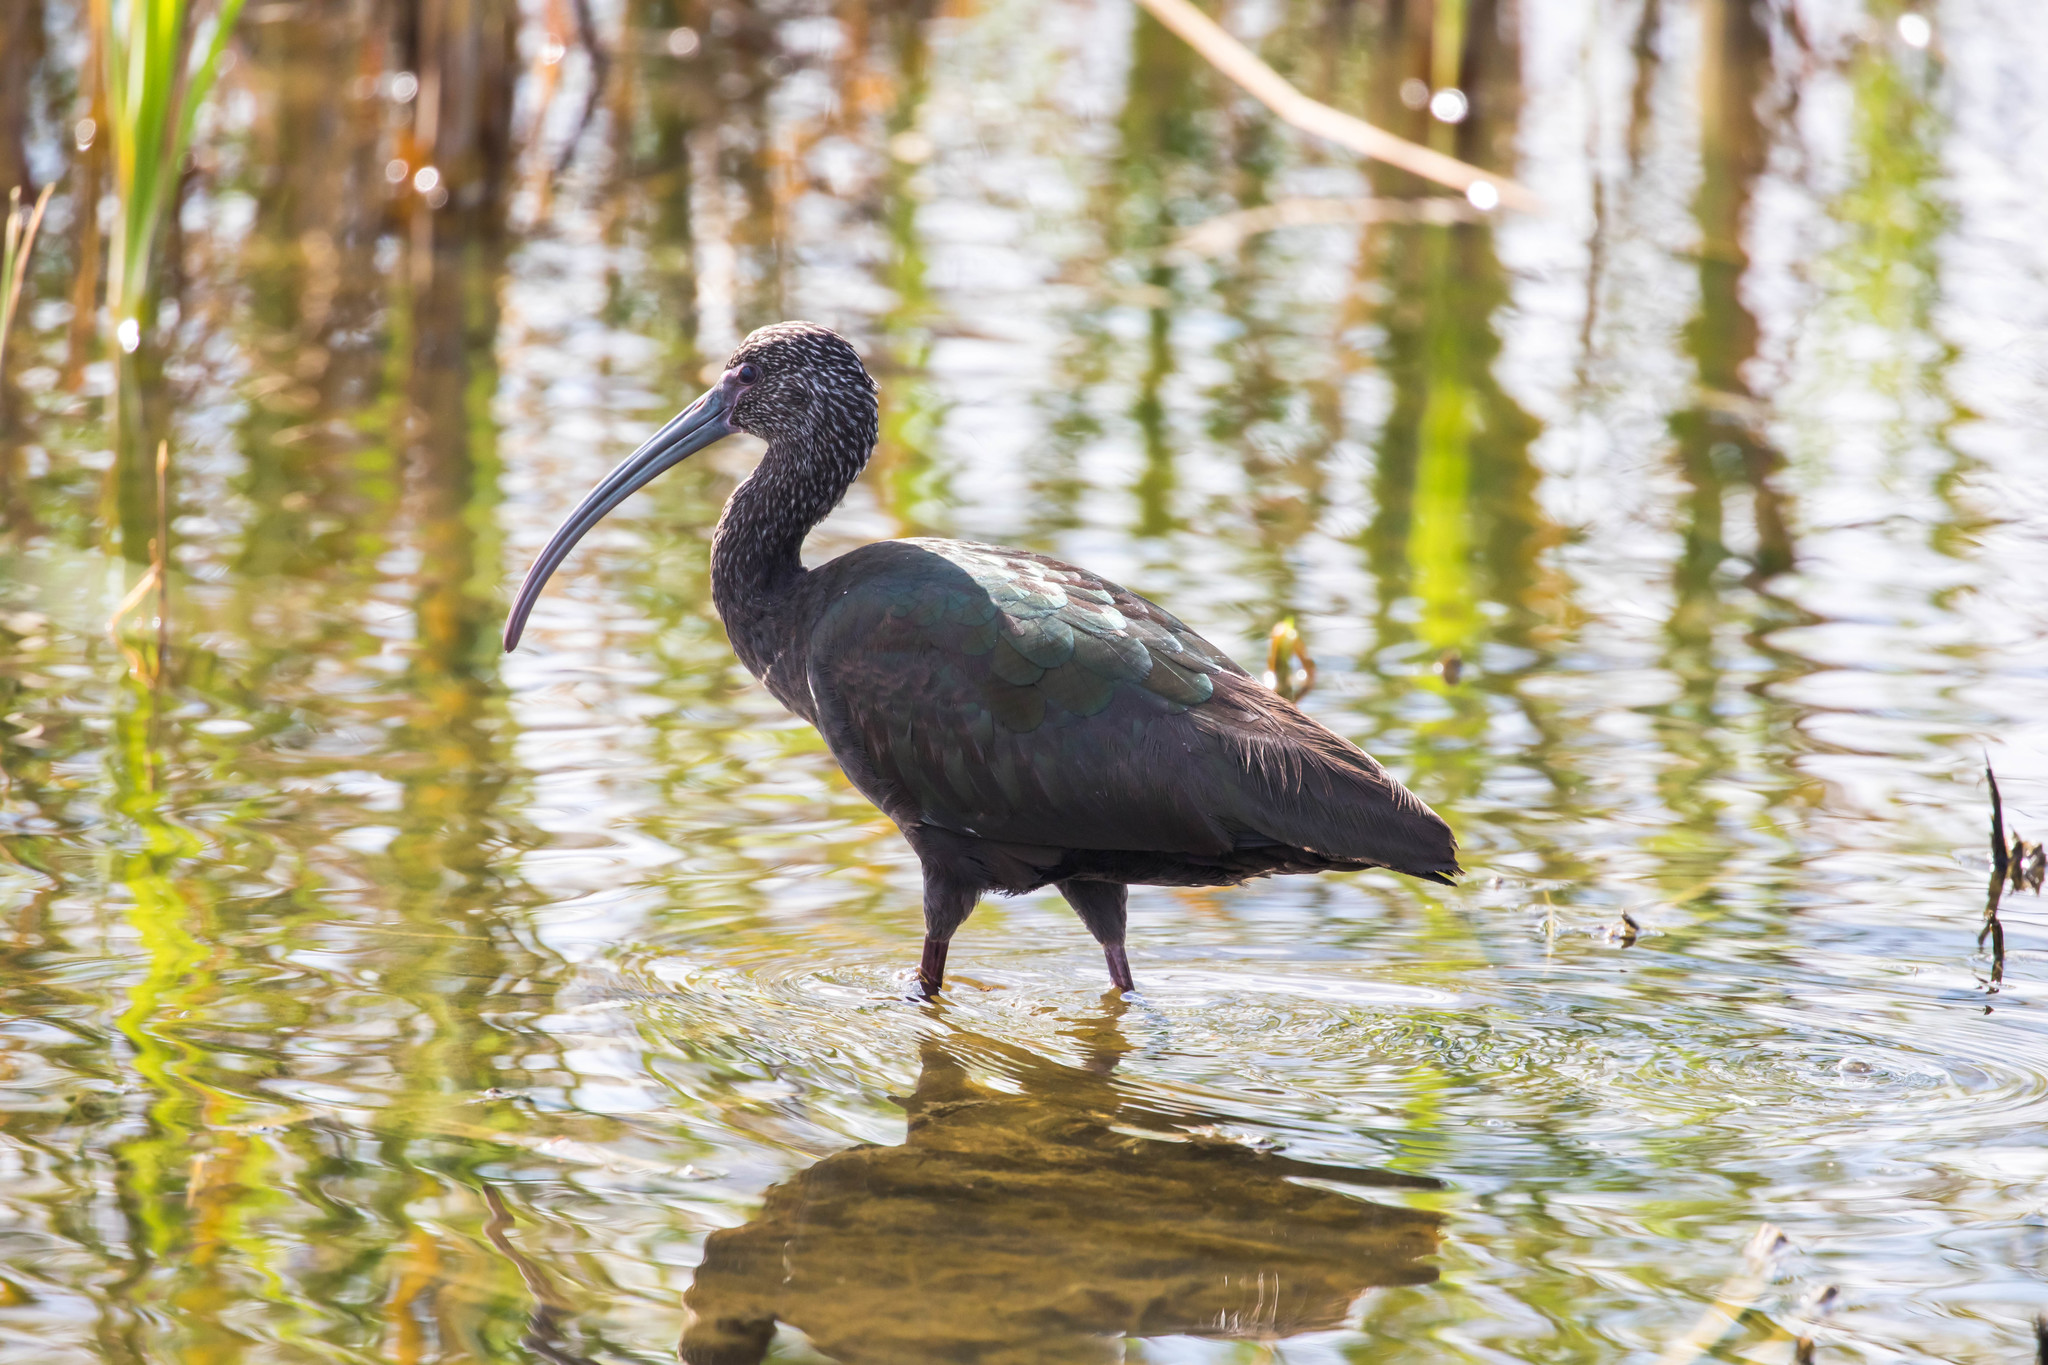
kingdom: Animalia
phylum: Chordata
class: Aves
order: Pelecaniformes
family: Threskiornithidae
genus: Plegadis
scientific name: Plegadis chihi
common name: White-faced ibis
